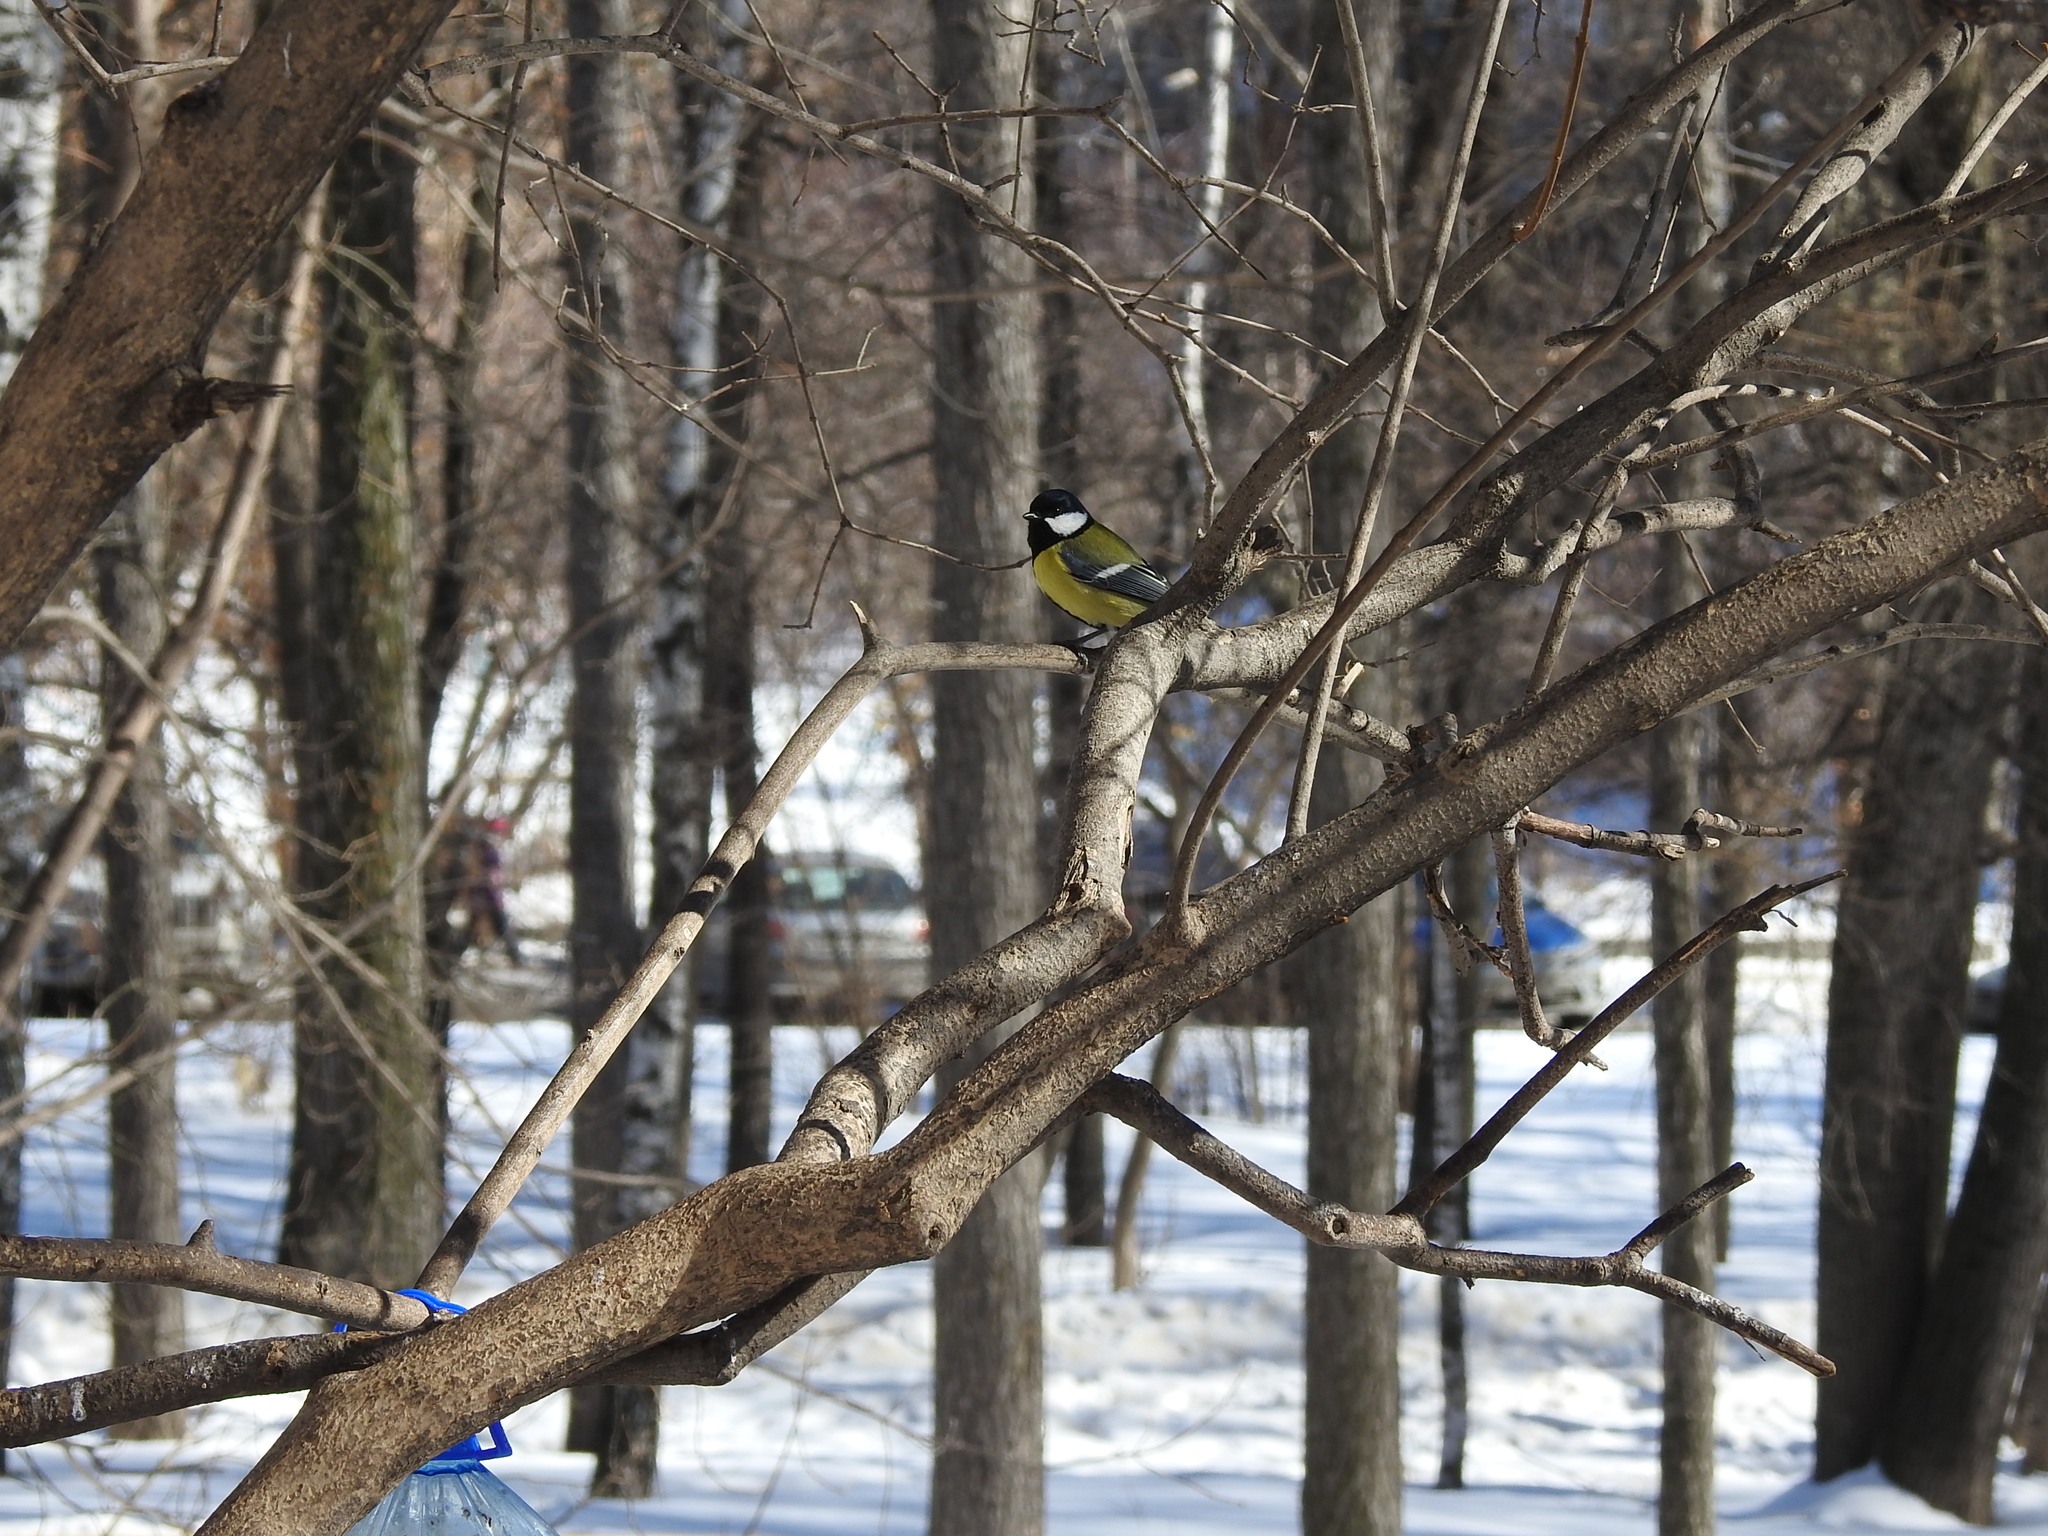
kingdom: Animalia
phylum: Chordata
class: Aves
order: Passeriformes
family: Paridae
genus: Parus
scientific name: Parus major
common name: Great tit
